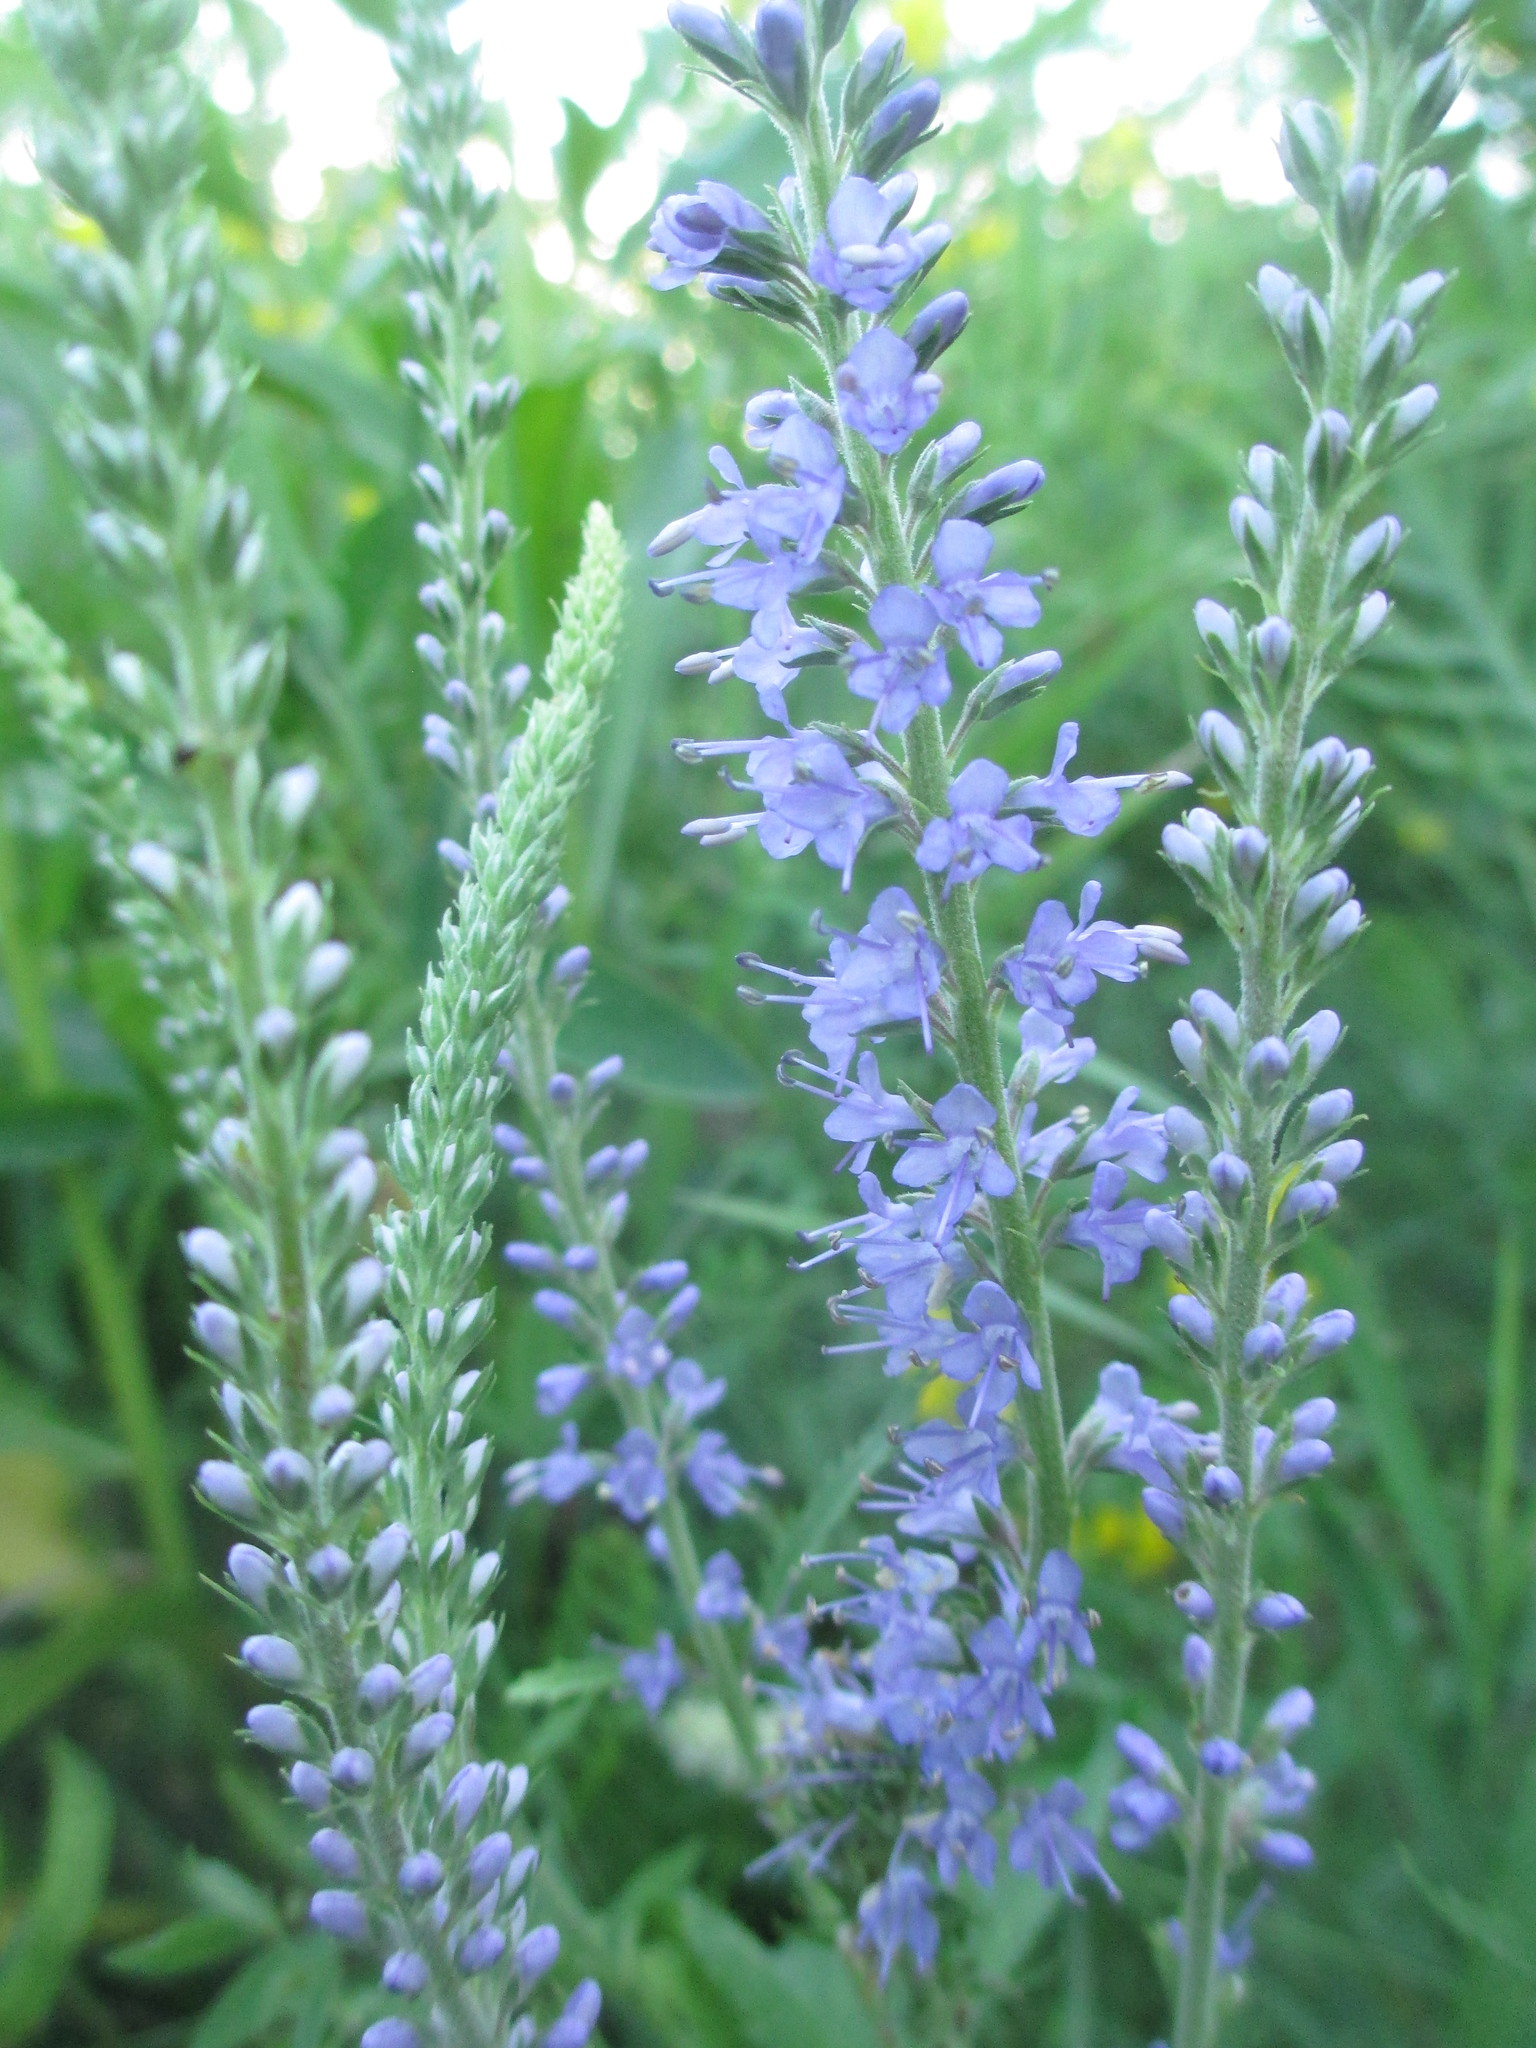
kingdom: Plantae
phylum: Tracheophyta
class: Magnoliopsida
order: Lamiales
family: Plantaginaceae
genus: Veronica
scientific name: Veronica longifolia
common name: Garden speedwell
